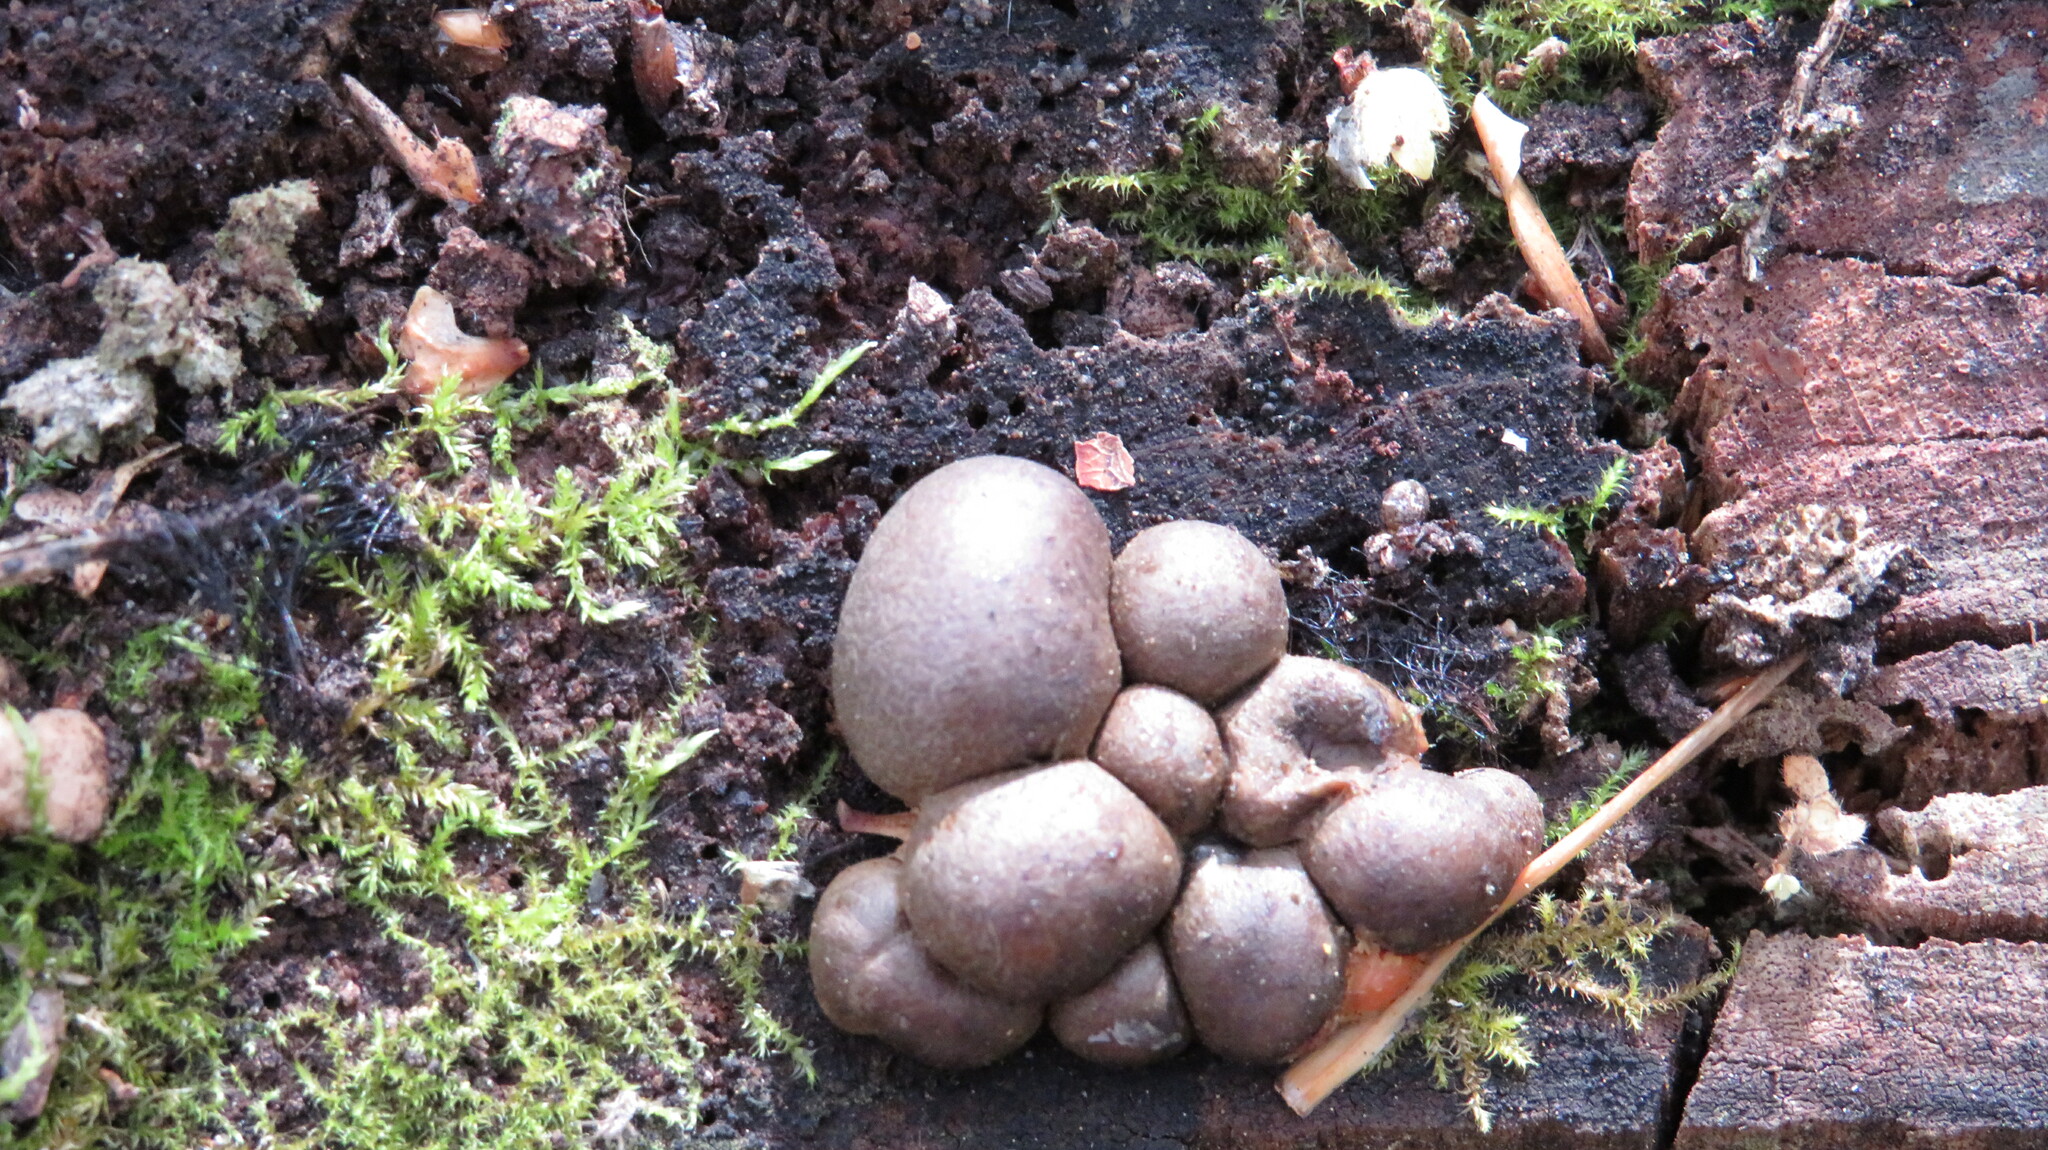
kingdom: Protozoa
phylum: Mycetozoa
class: Myxomycetes
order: Cribrariales
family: Tubiferaceae
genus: Lycogala
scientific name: Lycogala epidendrum
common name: Wolf's milk
